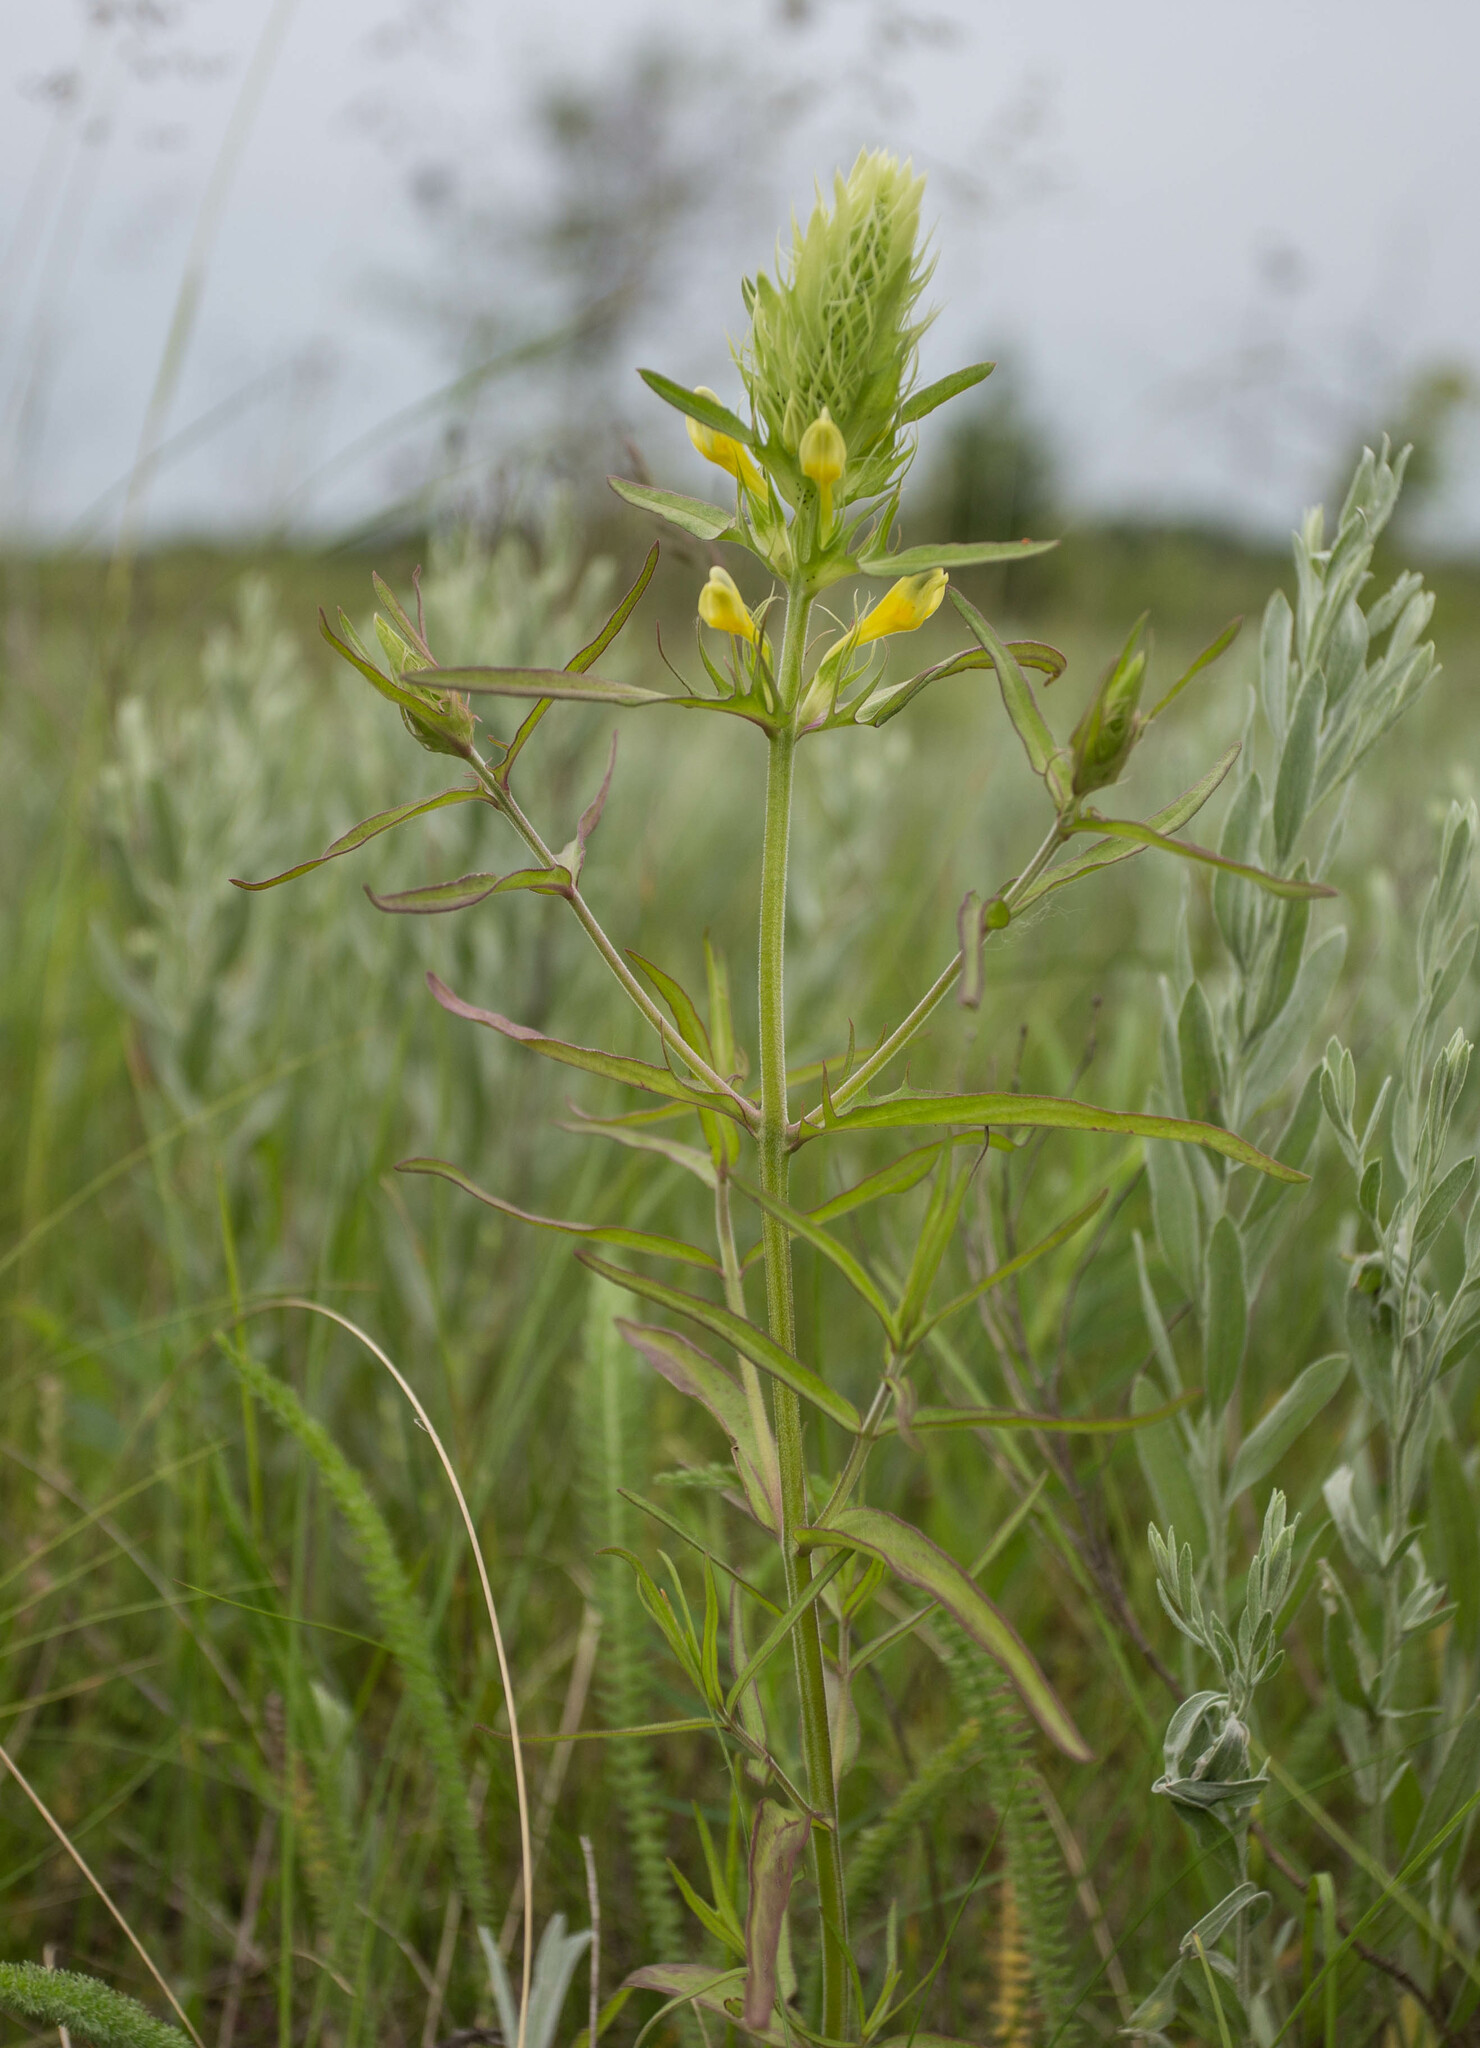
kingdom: Plantae
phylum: Tracheophyta
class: Magnoliopsida
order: Lamiales
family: Orobanchaceae
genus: Melampyrum
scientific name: Melampyrum arvense
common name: Field cow-wheat
